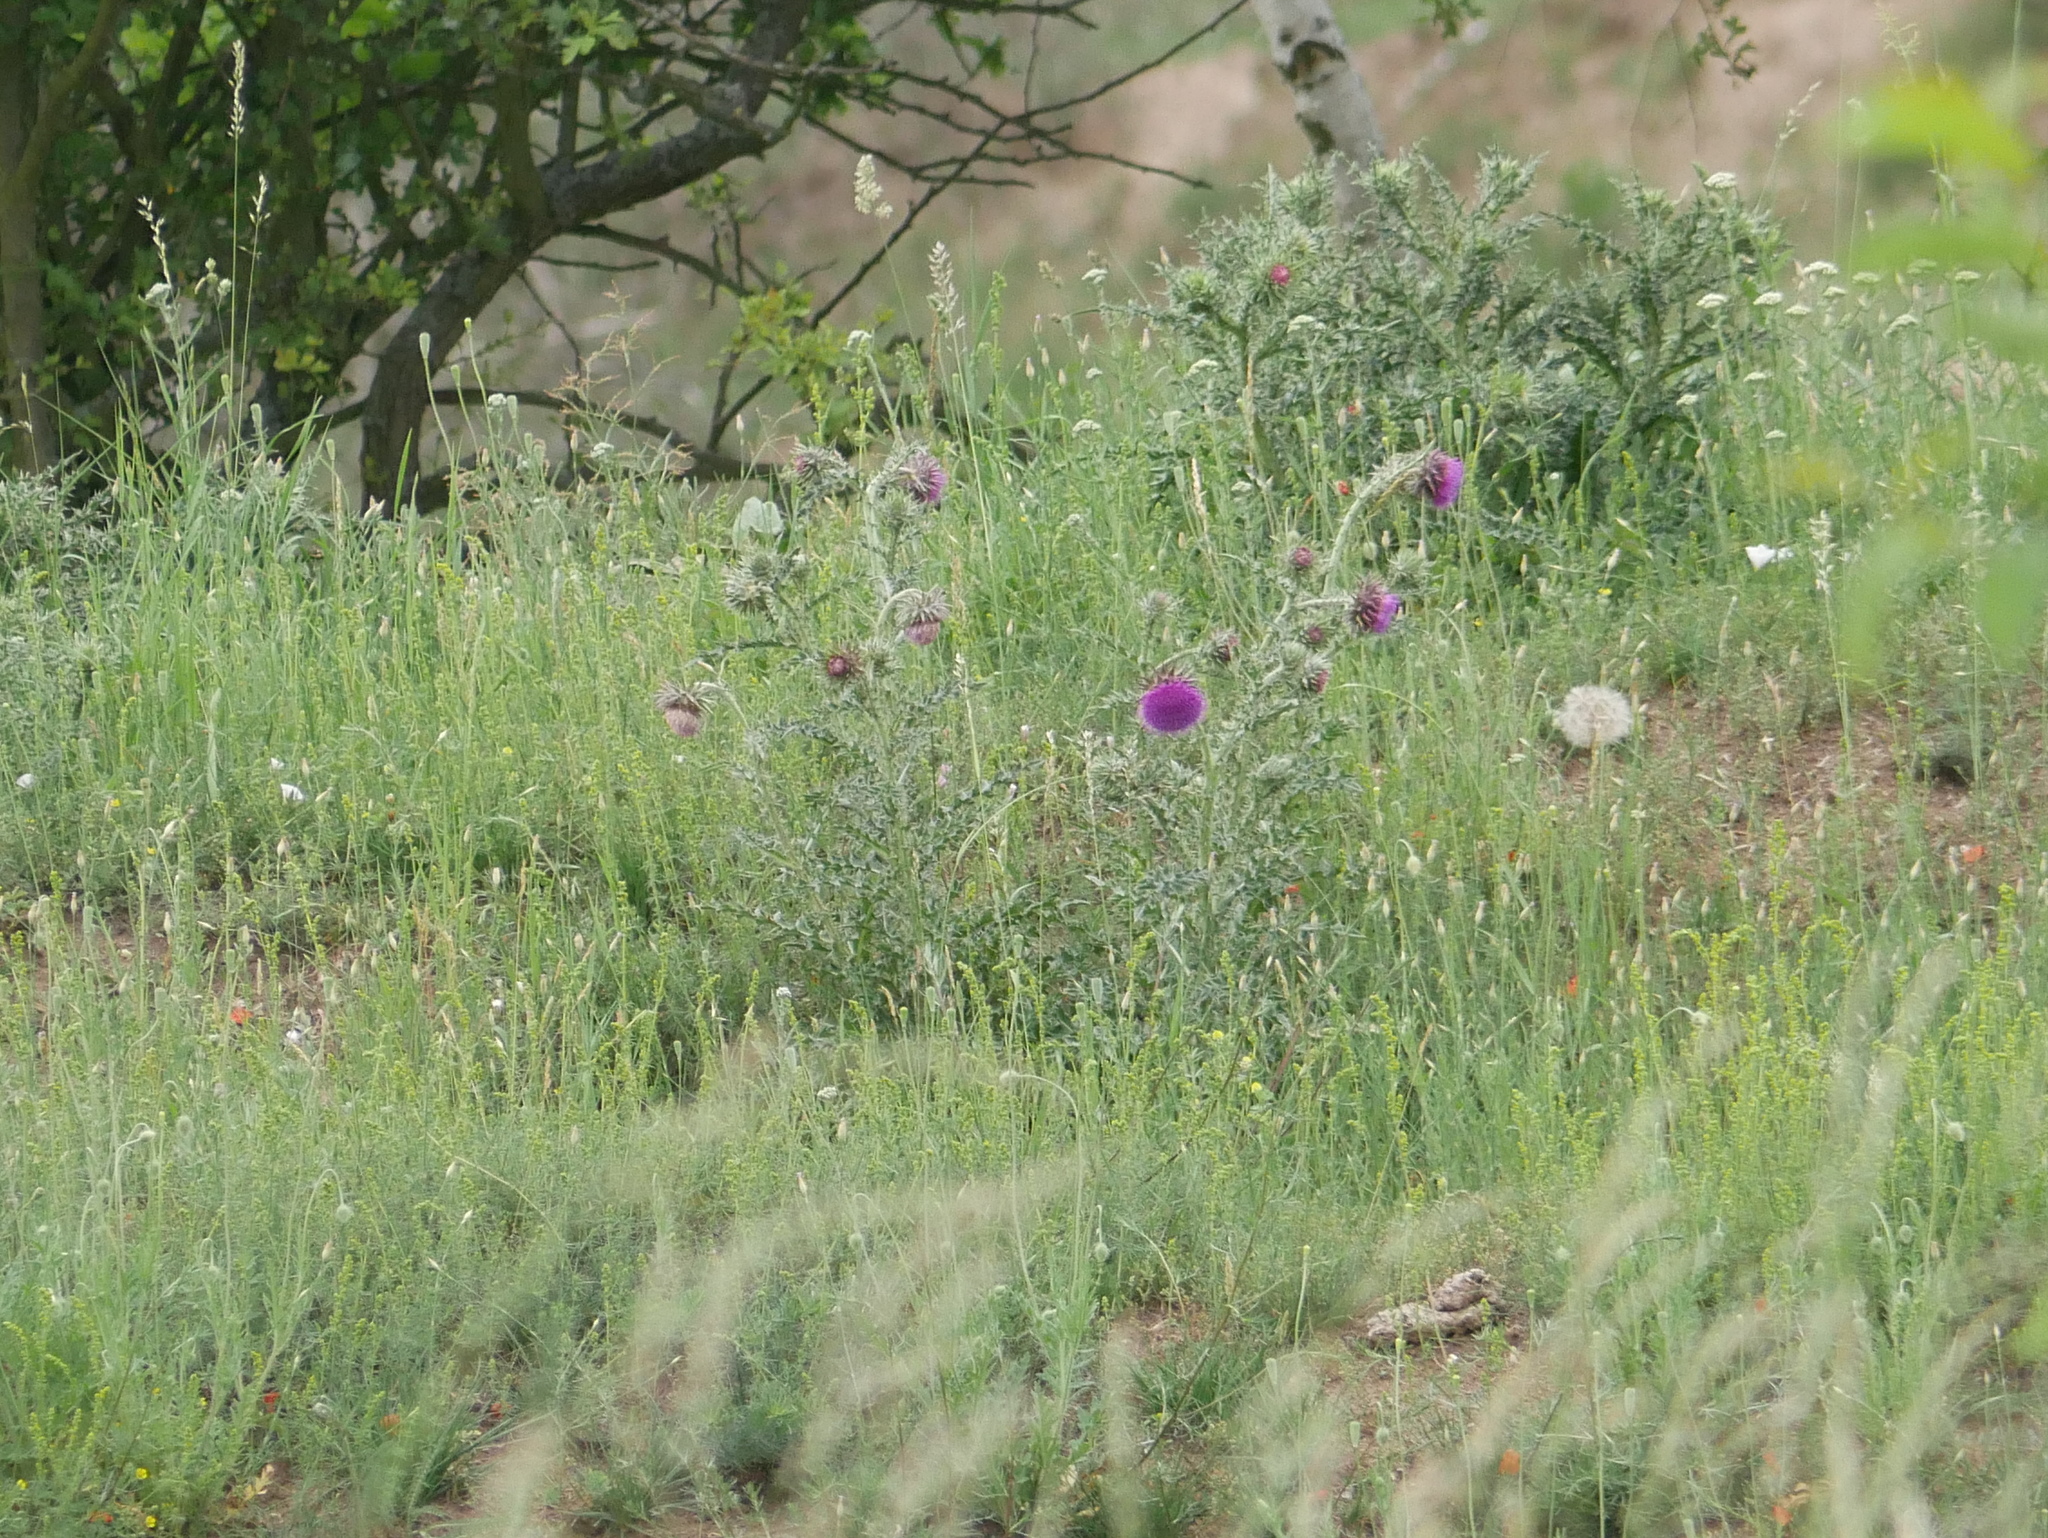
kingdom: Plantae
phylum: Tracheophyta
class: Magnoliopsida
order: Asterales
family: Asteraceae
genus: Carduus
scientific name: Carduus nutans
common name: Musk thistle
